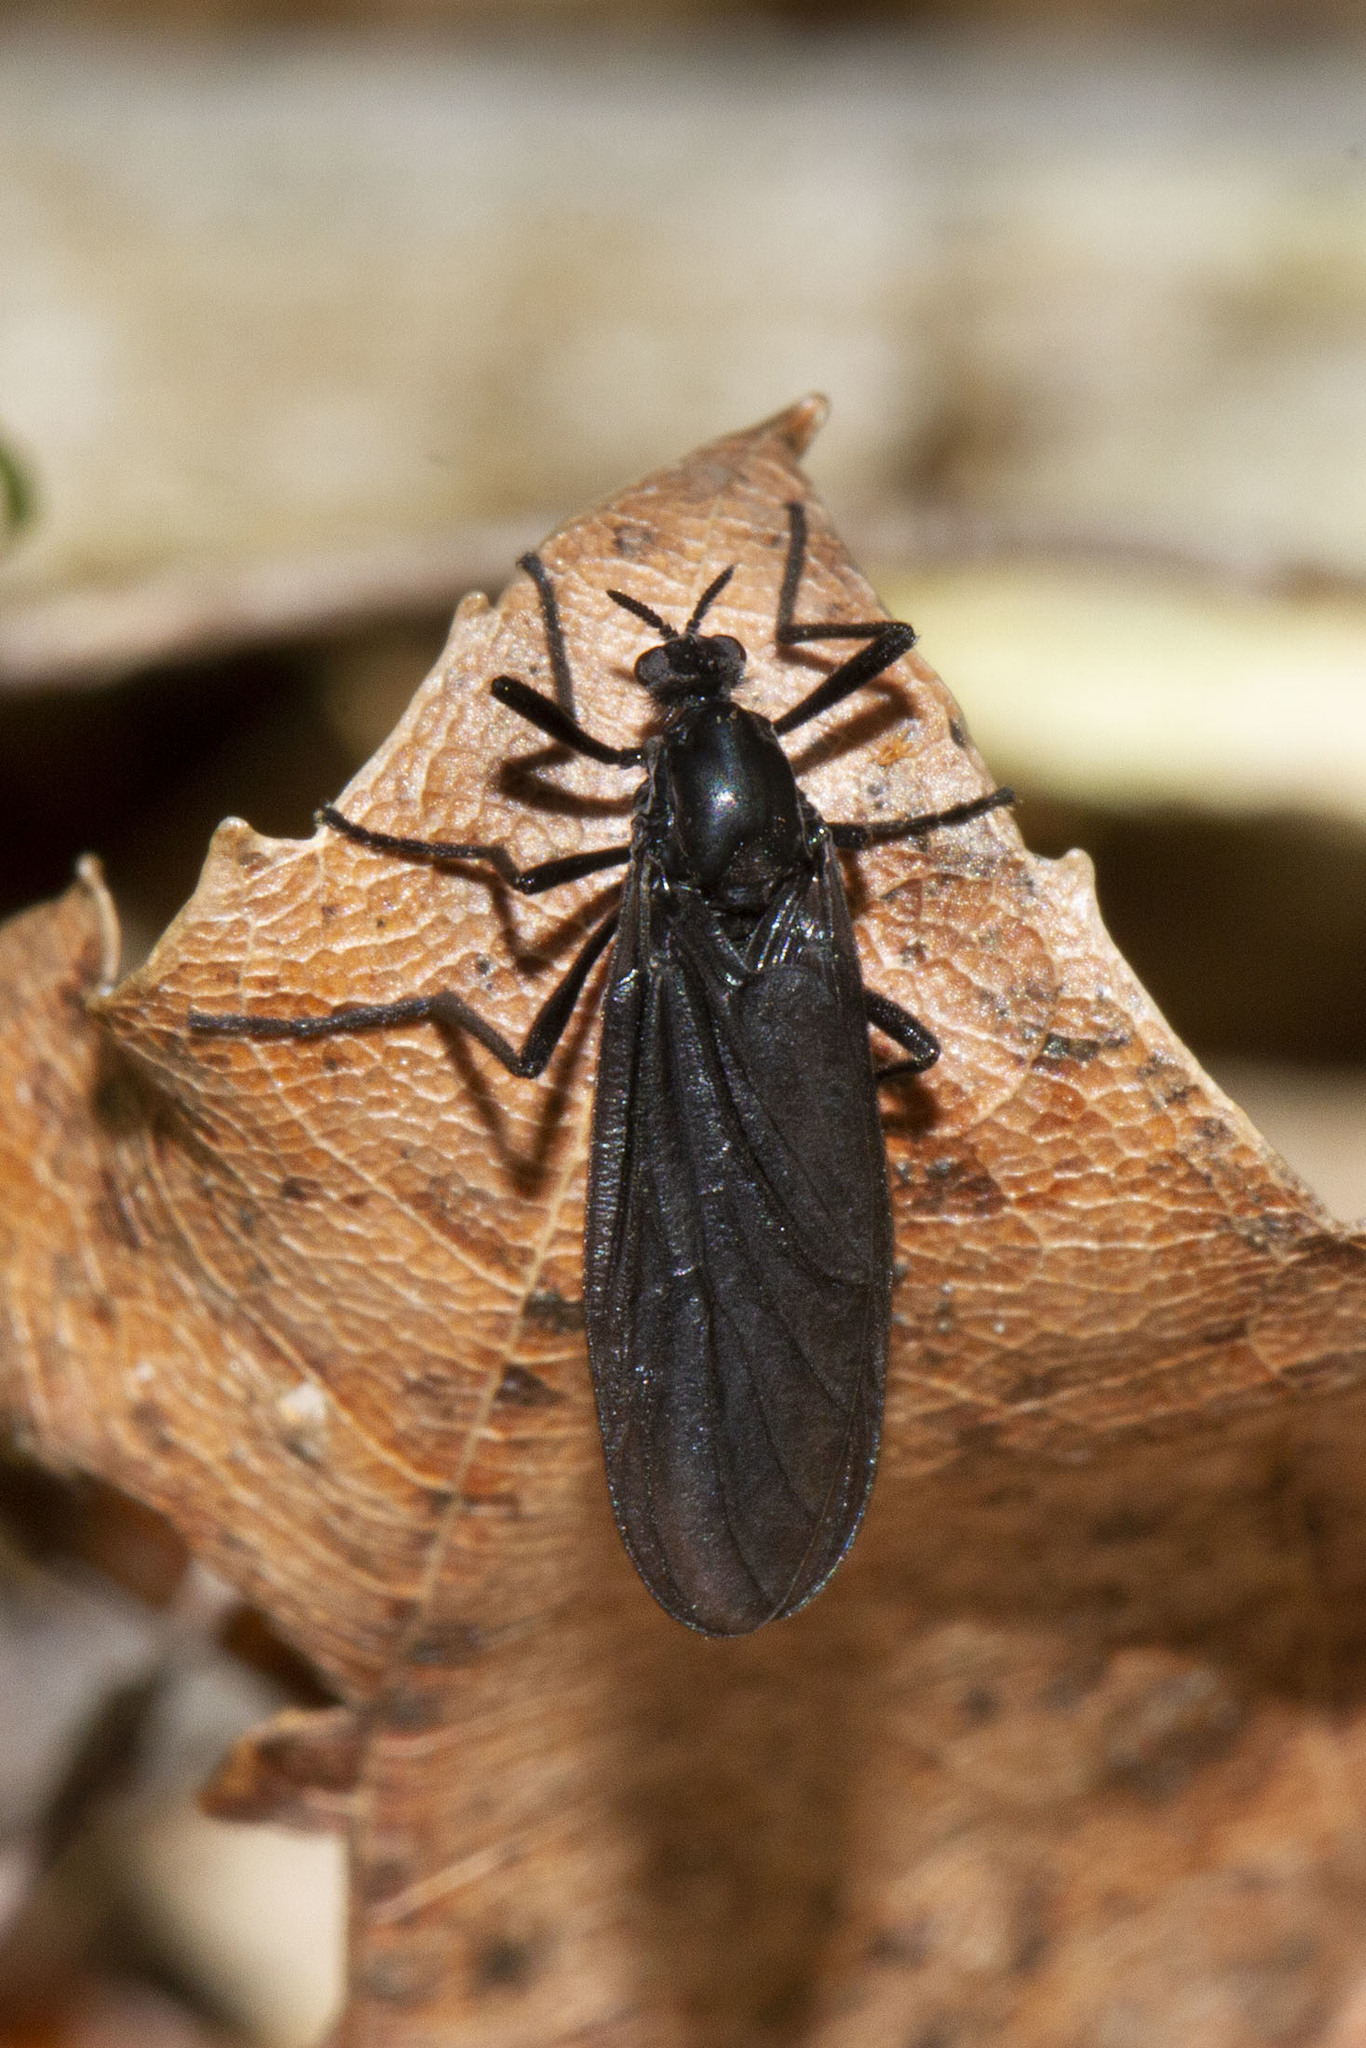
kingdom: Animalia
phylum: Arthropoda
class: Insecta
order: Diptera
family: Bibionidae
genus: Penthetria
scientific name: Penthetria heteroptera
